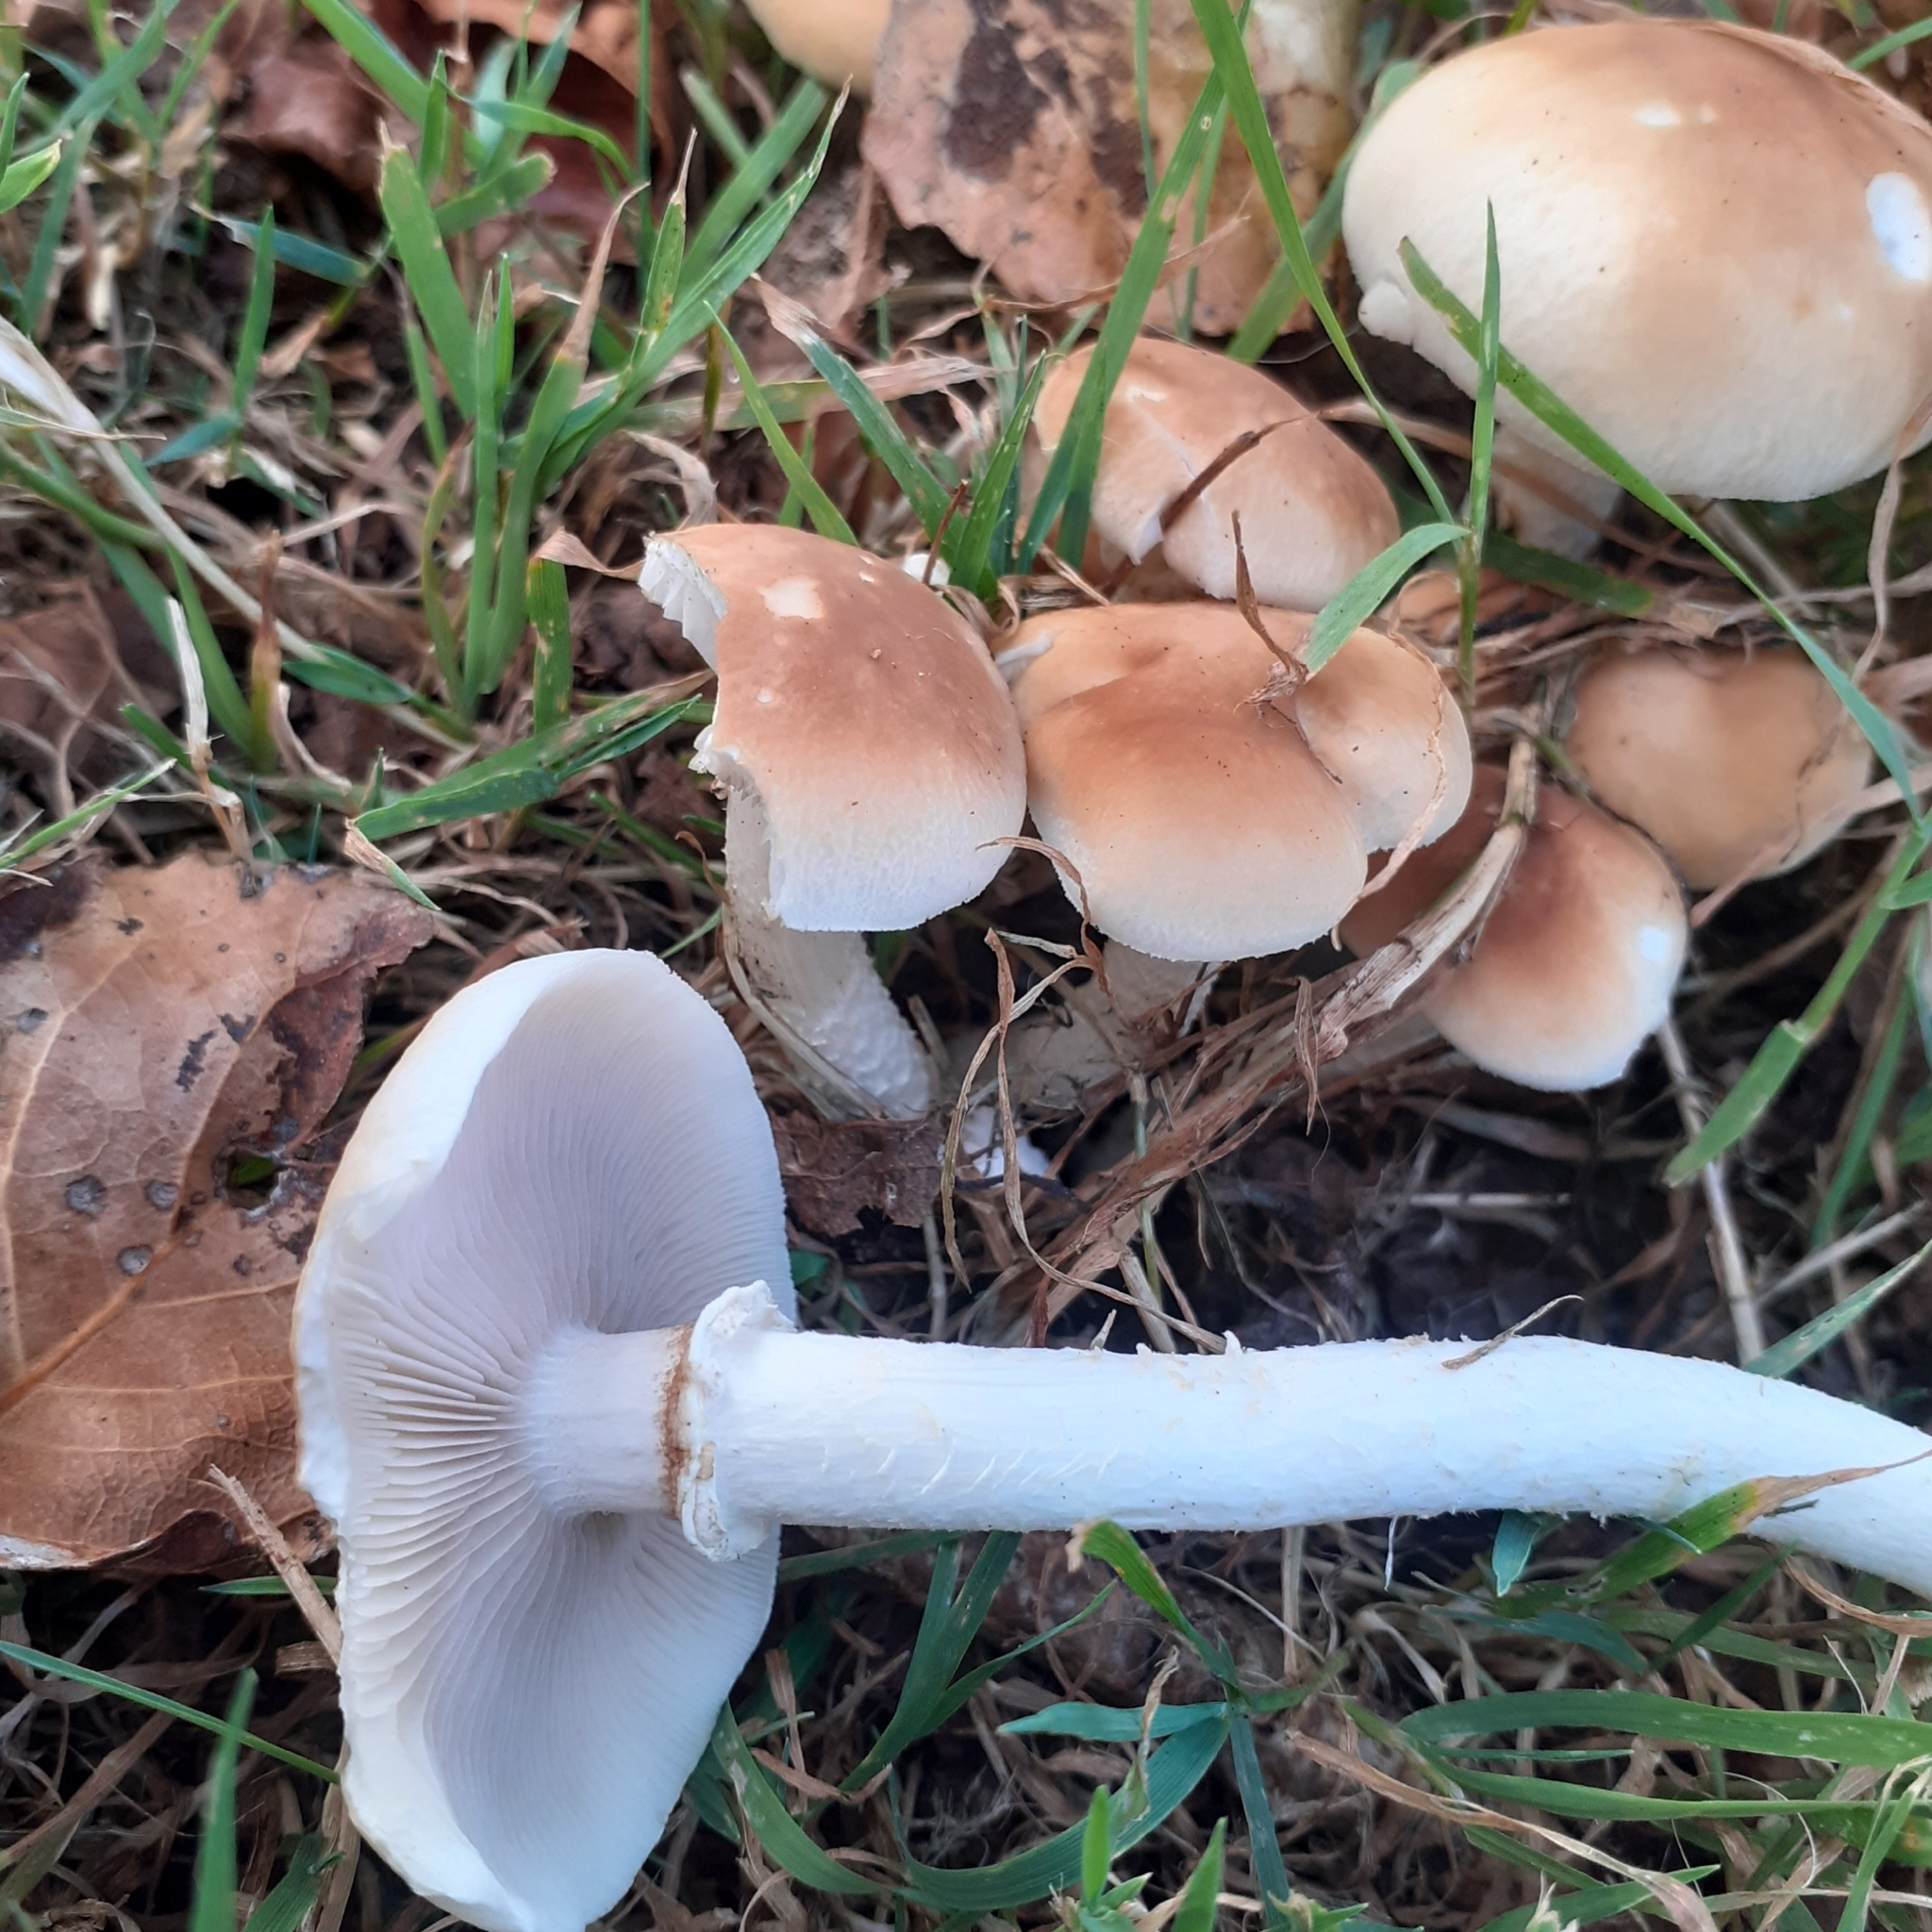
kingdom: Fungi
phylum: Basidiomycota
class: Agaricomycetes
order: Agaricales
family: Tubariaceae
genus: Cyclocybe
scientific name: Cyclocybe cylindracea
